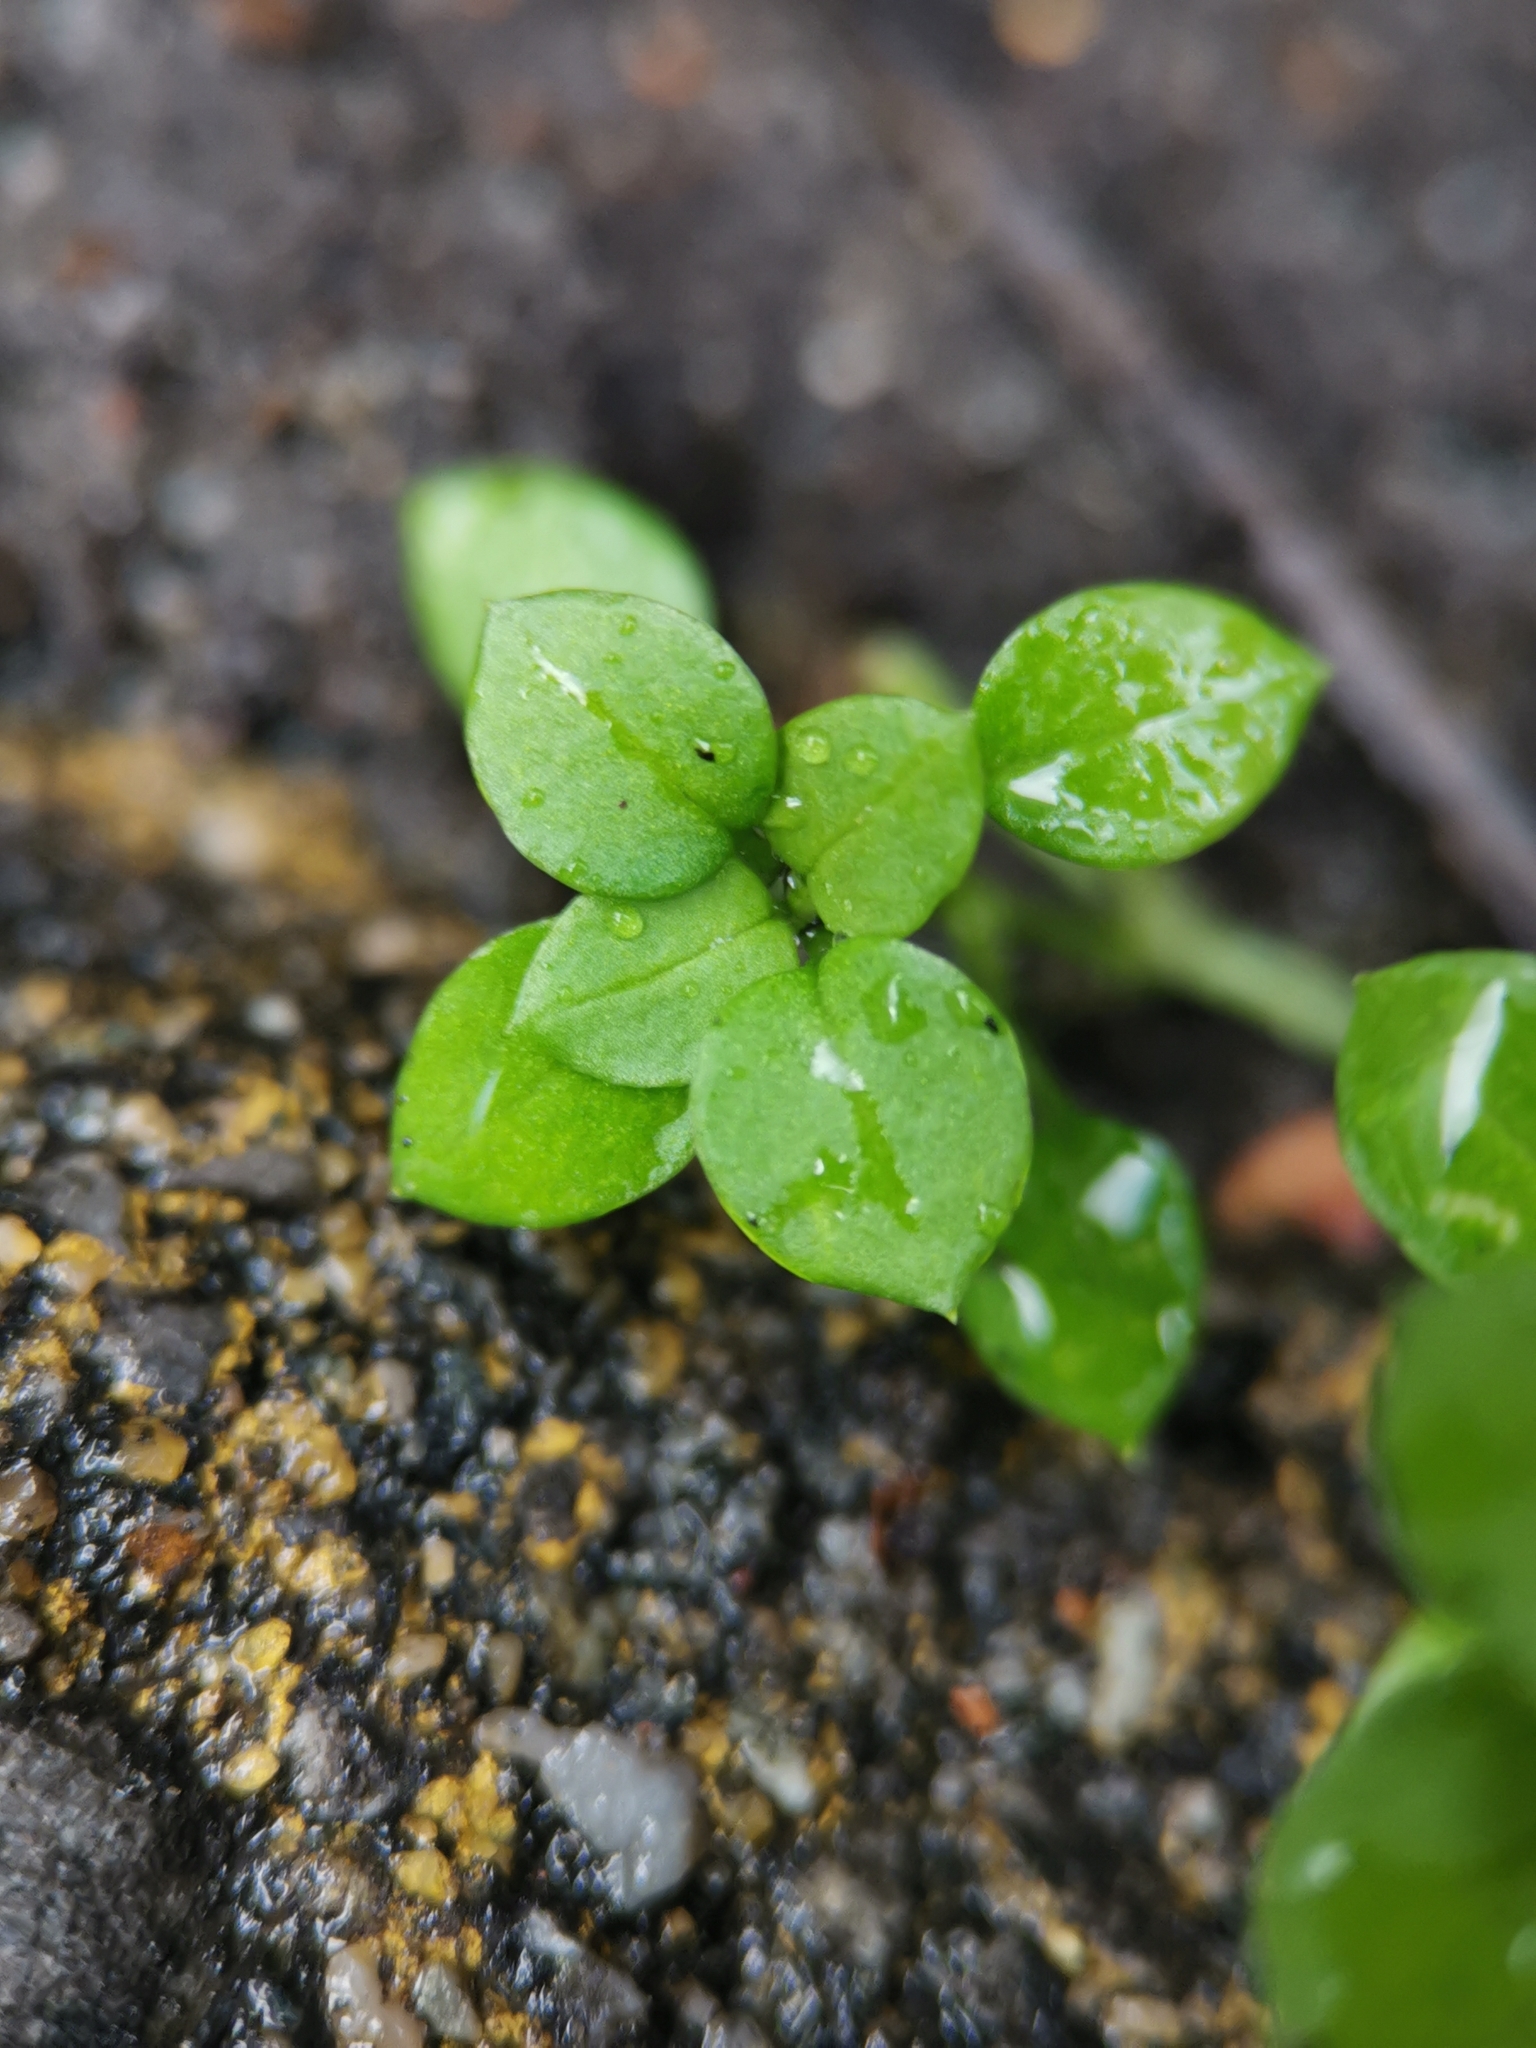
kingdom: Plantae
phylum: Tracheophyta
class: Magnoliopsida
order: Caryophyllales
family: Caryophyllaceae
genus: Stellaria
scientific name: Stellaria media
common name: Common chickweed
